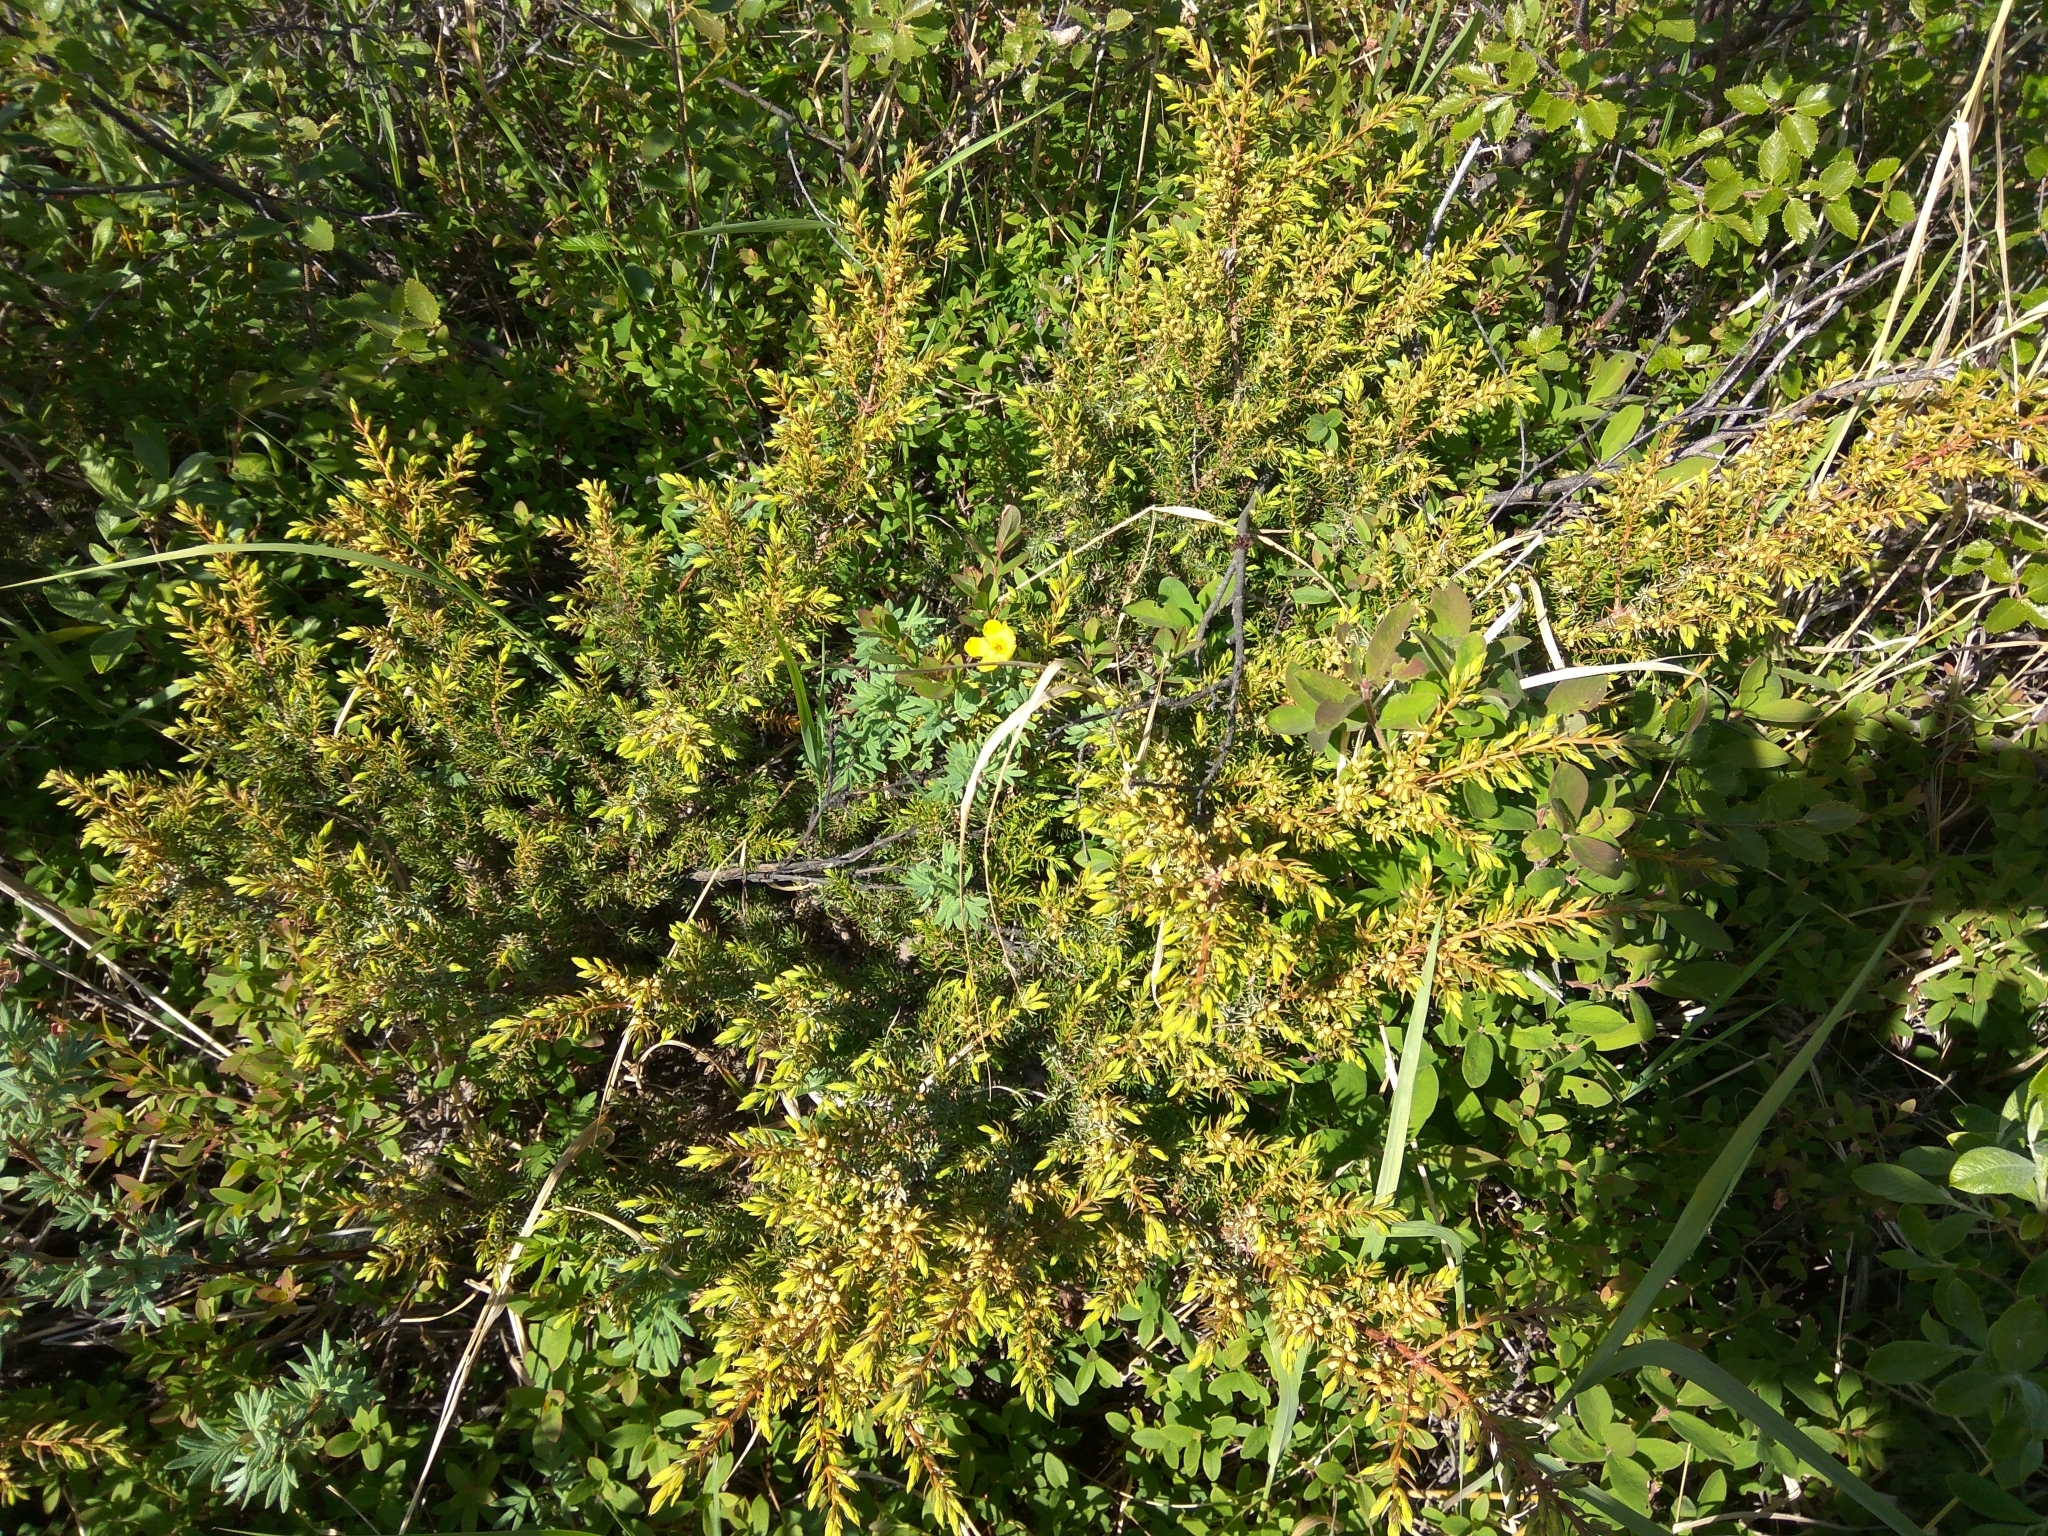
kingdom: Plantae
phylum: Tracheophyta
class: Pinopsida
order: Pinales
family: Cupressaceae
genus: Juniperus
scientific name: Juniperus communis
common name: Common juniper
